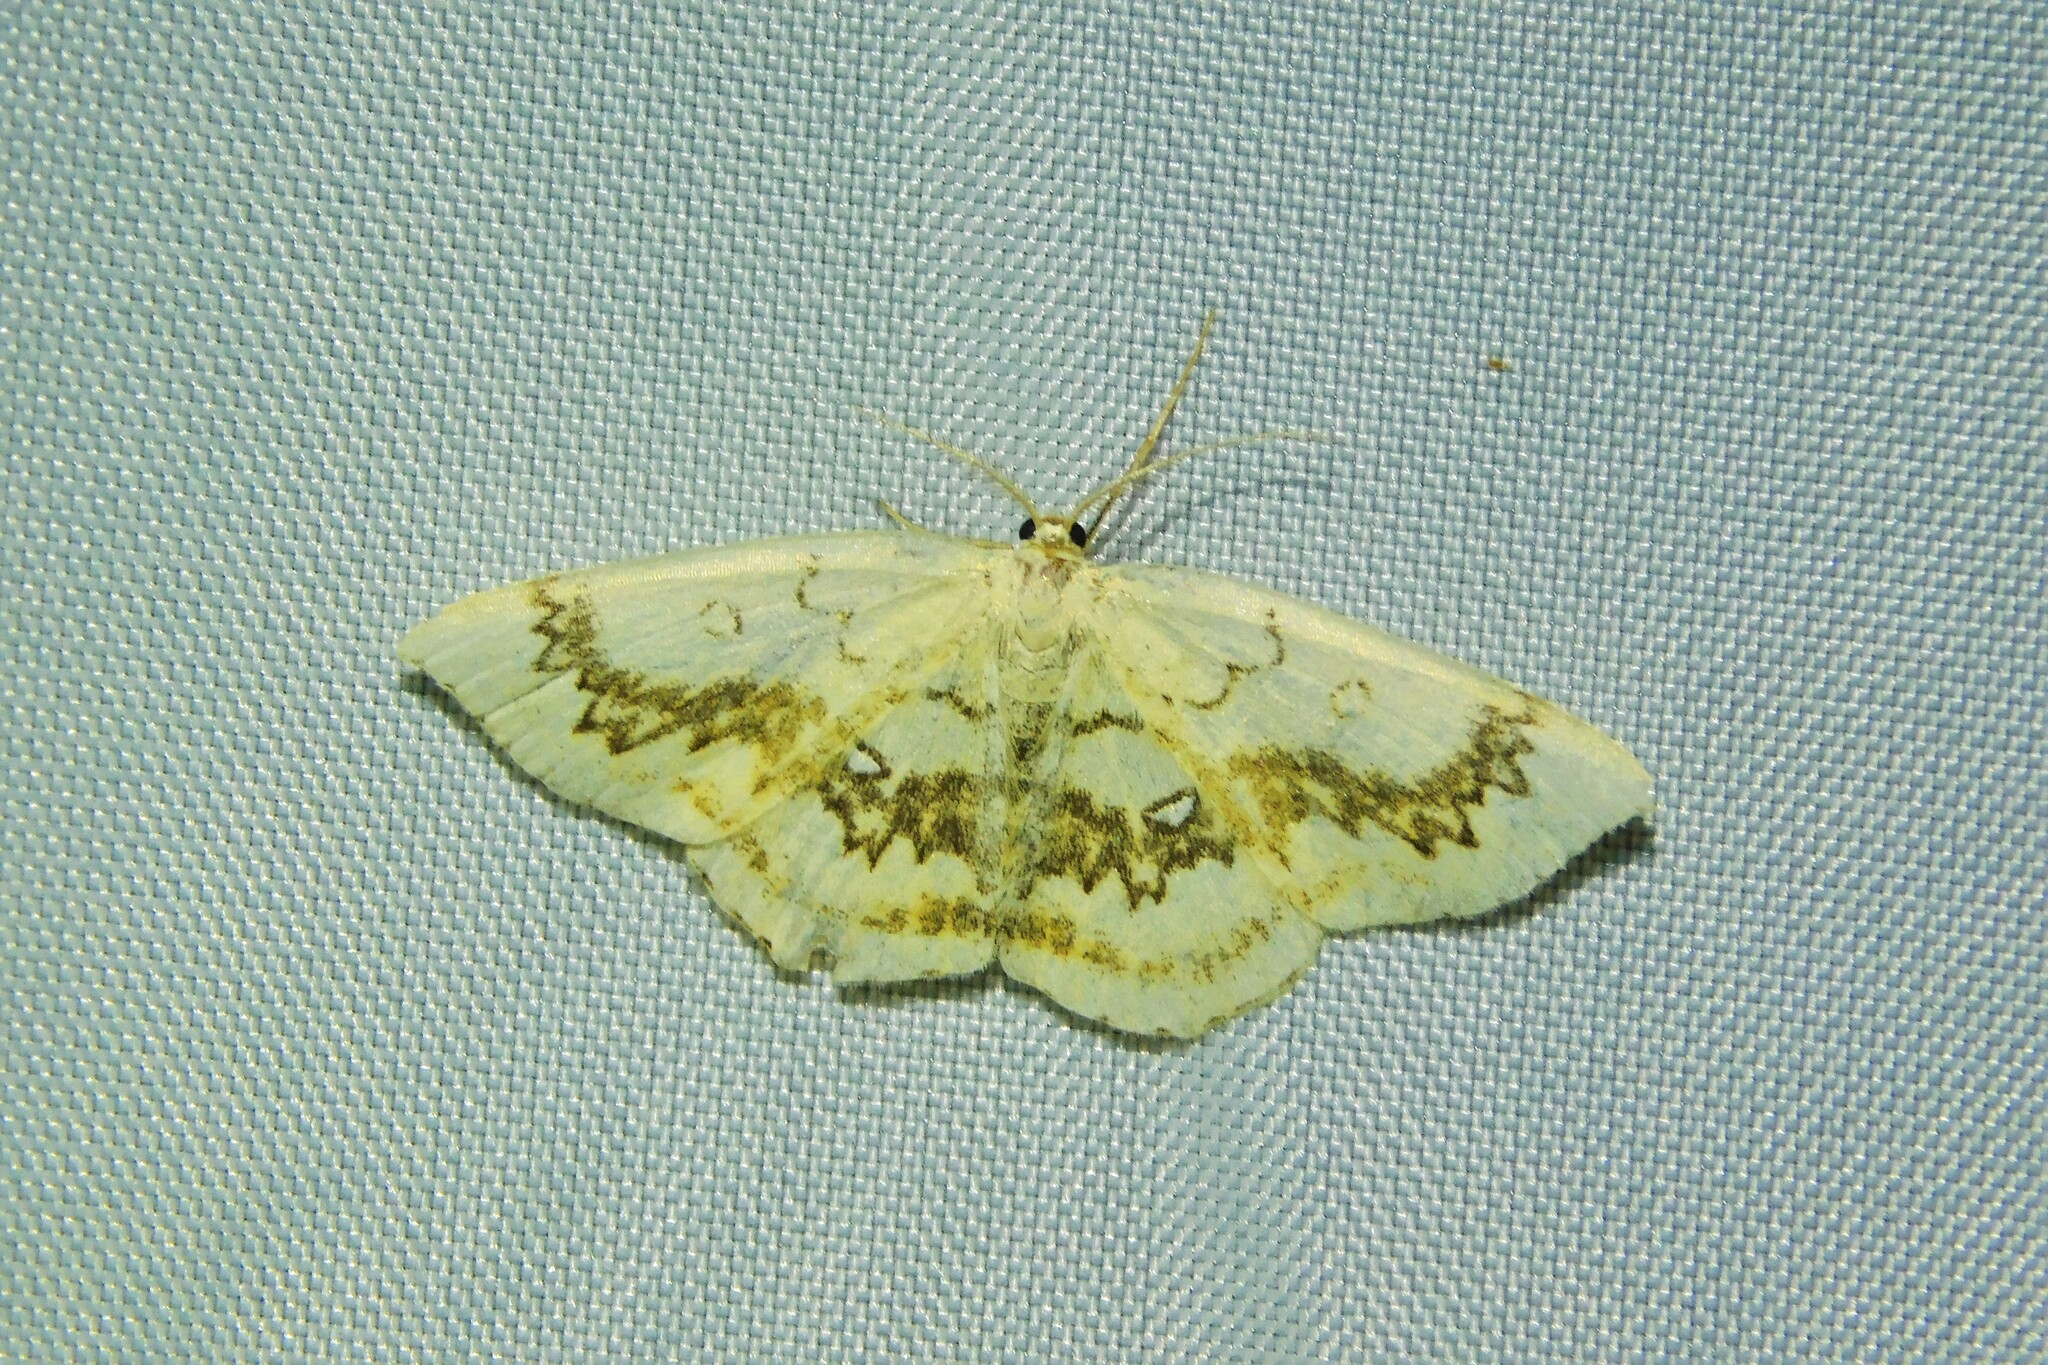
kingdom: Animalia
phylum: Arthropoda
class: Insecta
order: Lepidoptera
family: Geometridae
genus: Cyclophora
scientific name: Cyclophora annularia
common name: Mocha
